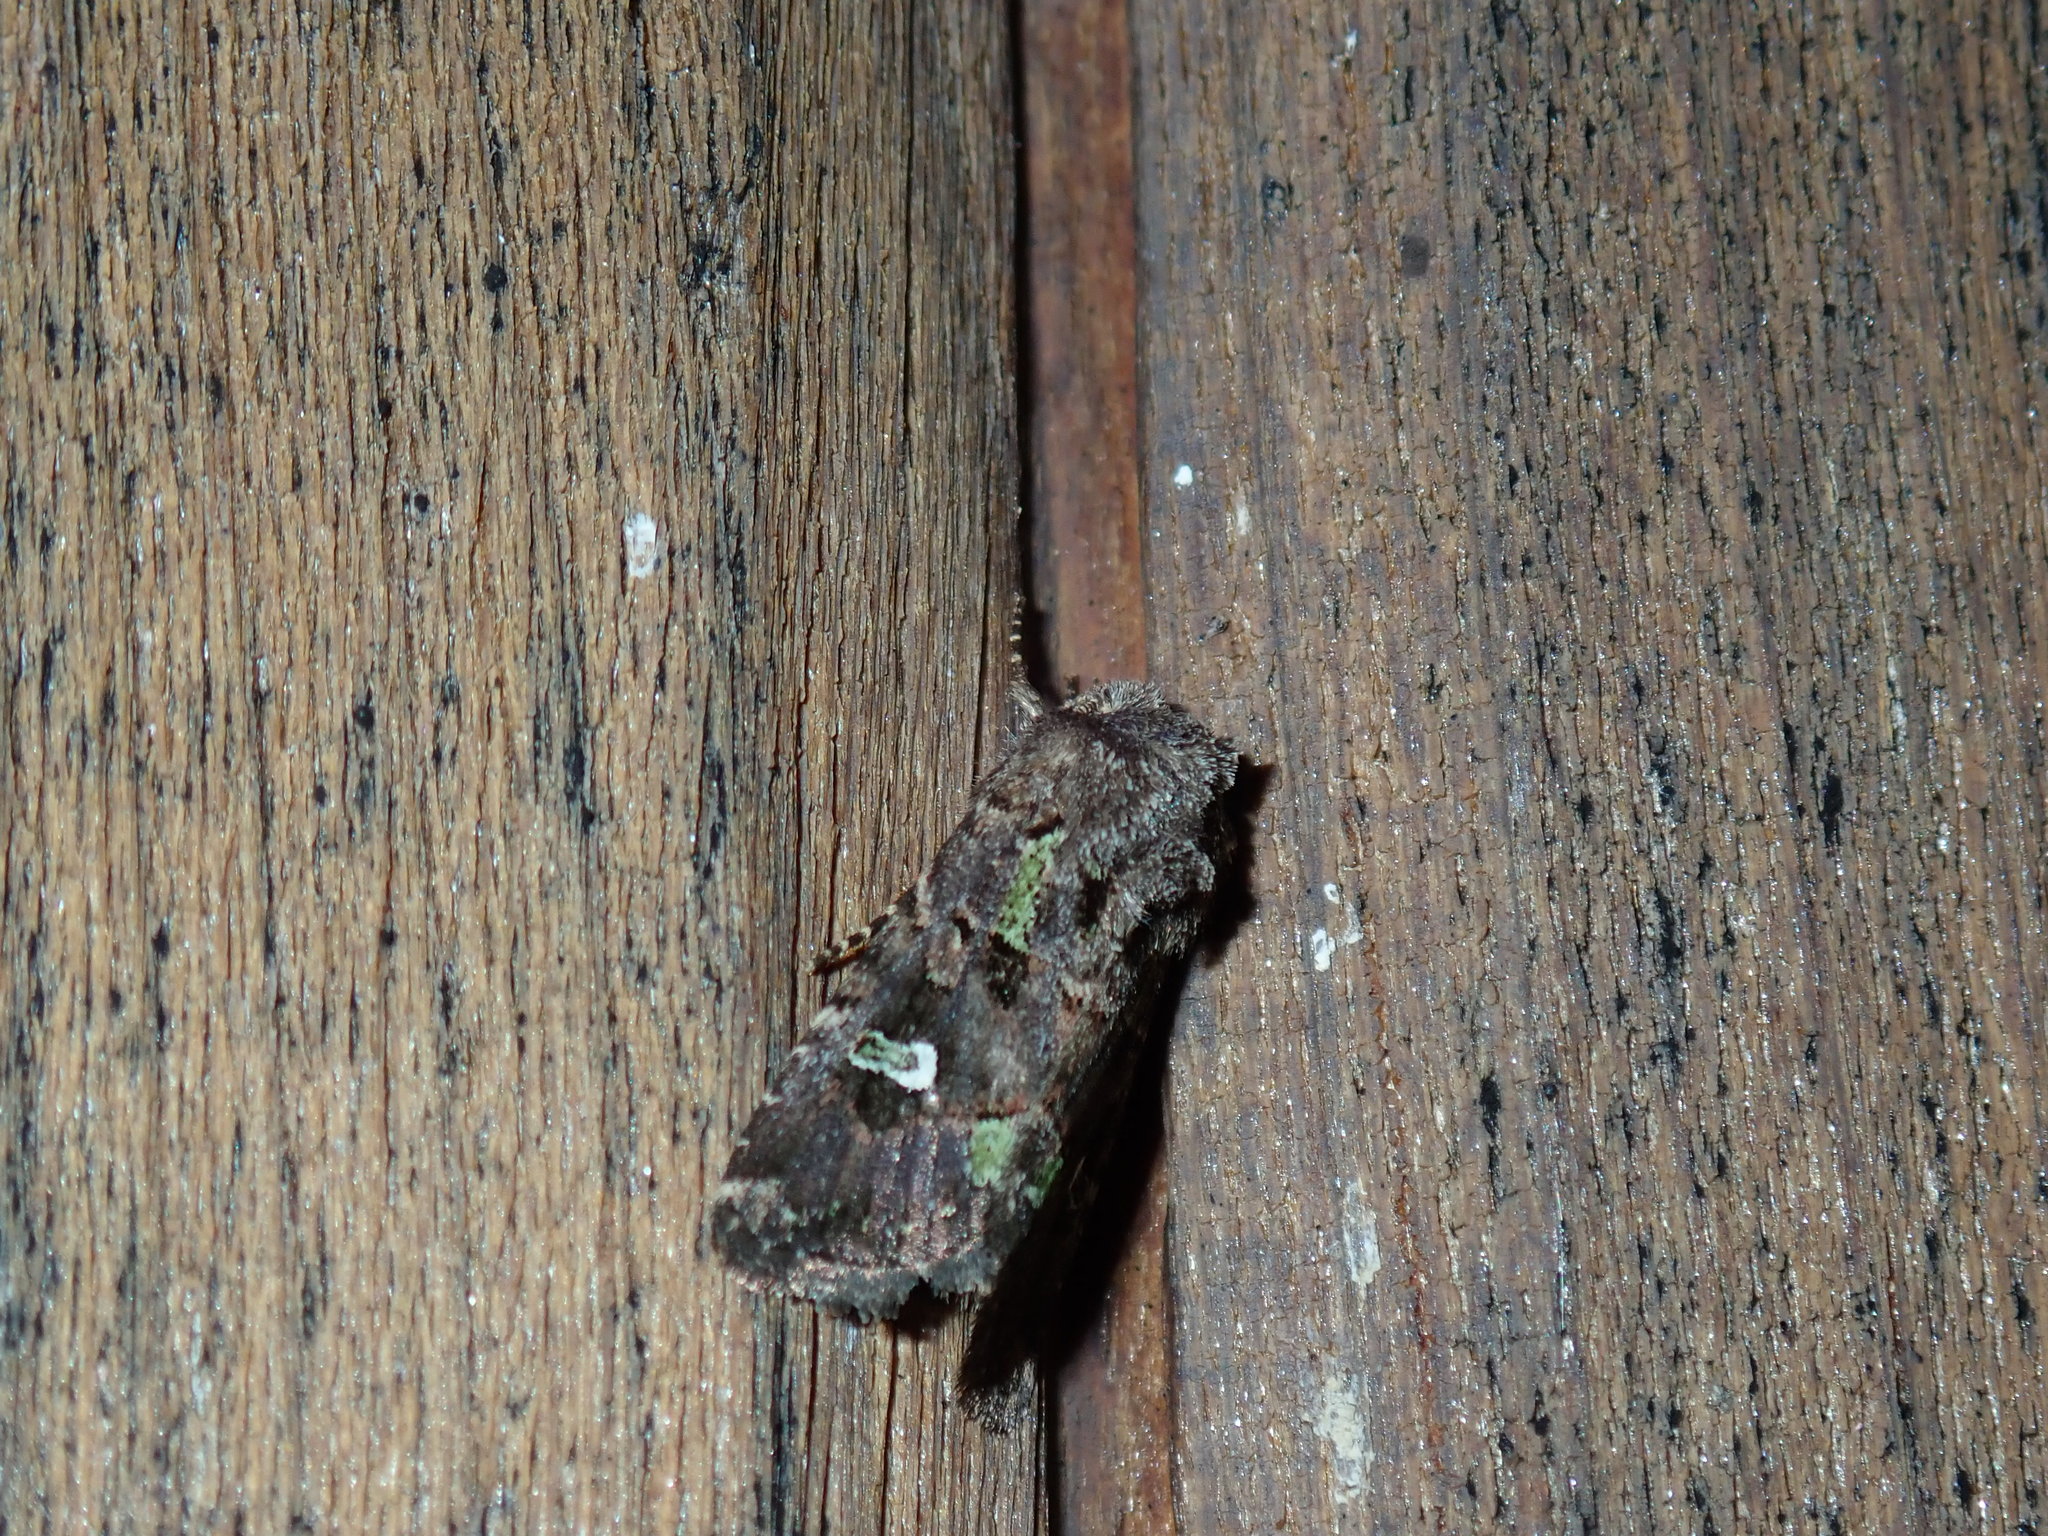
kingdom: Animalia
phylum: Arthropoda
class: Insecta
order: Lepidoptera
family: Noctuidae
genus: Lacinipolia
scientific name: Lacinipolia renigera
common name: Kidney-spotted minor
